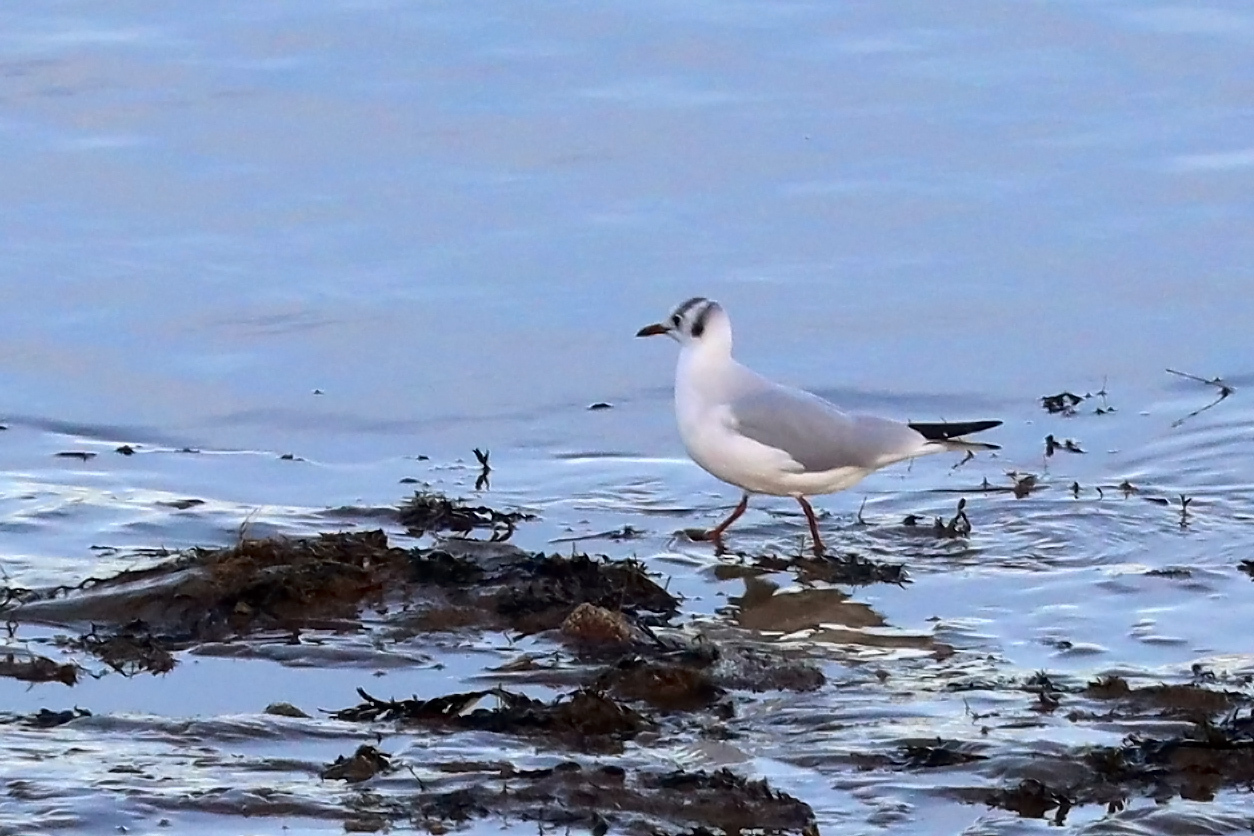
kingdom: Animalia
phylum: Chordata
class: Aves
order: Charadriiformes
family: Laridae
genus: Chroicocephalus
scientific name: Chroicocephalus ridibundus
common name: Black-headed gull
